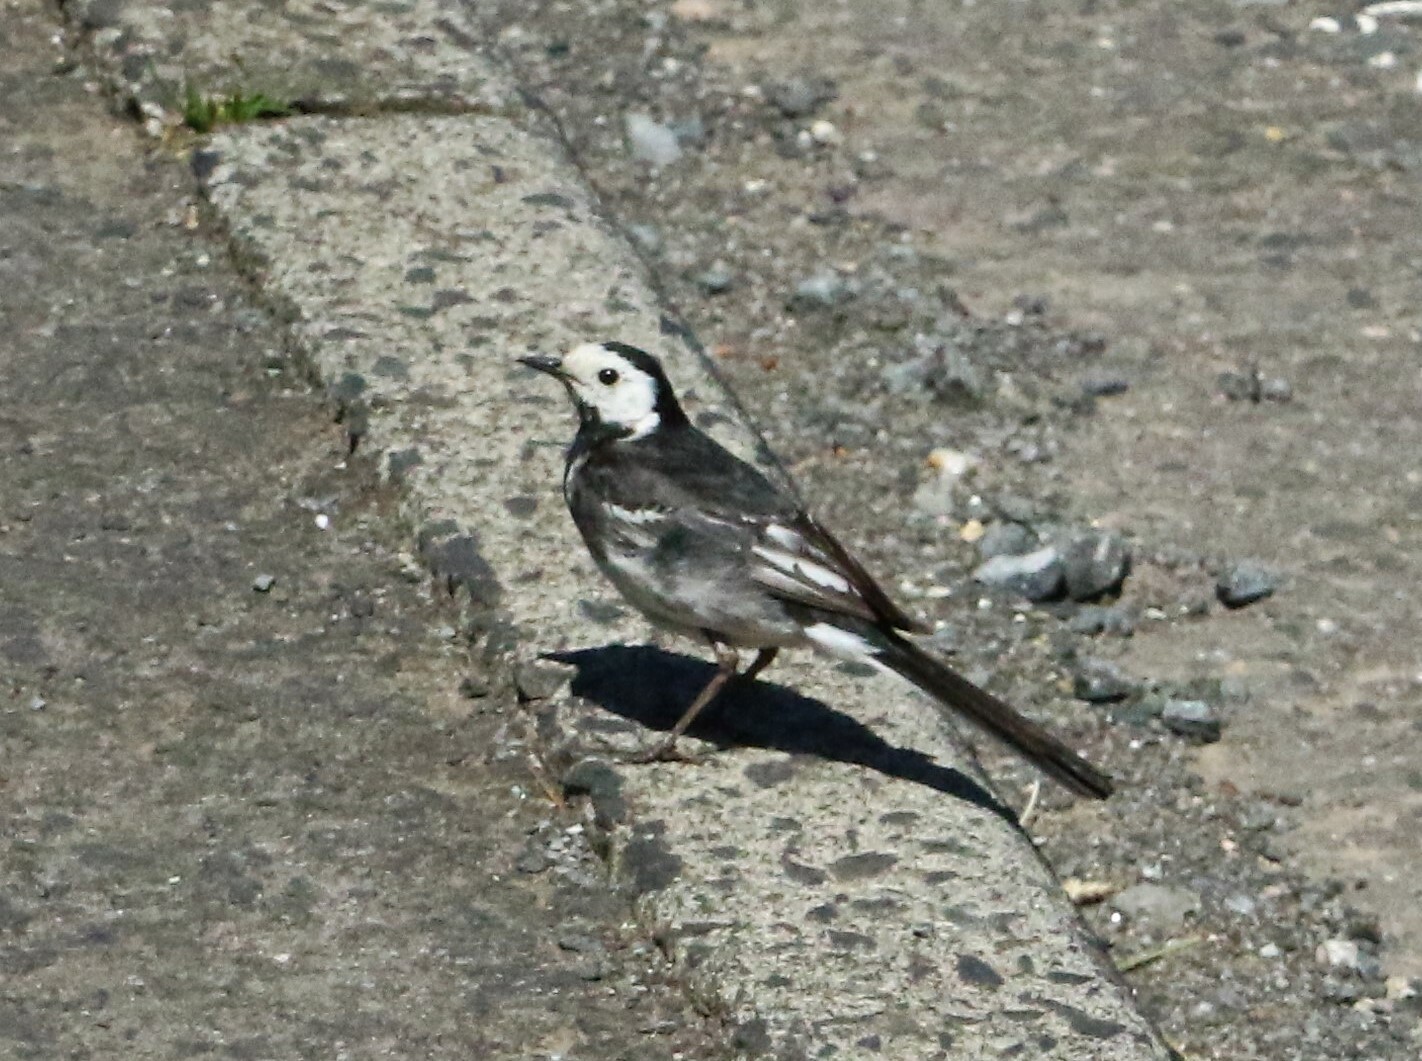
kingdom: Animalia
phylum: Chordata
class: Aves
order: Passeriformes
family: Motacillidae
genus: Motacilla
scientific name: Motacilla alba
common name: White wagtail
